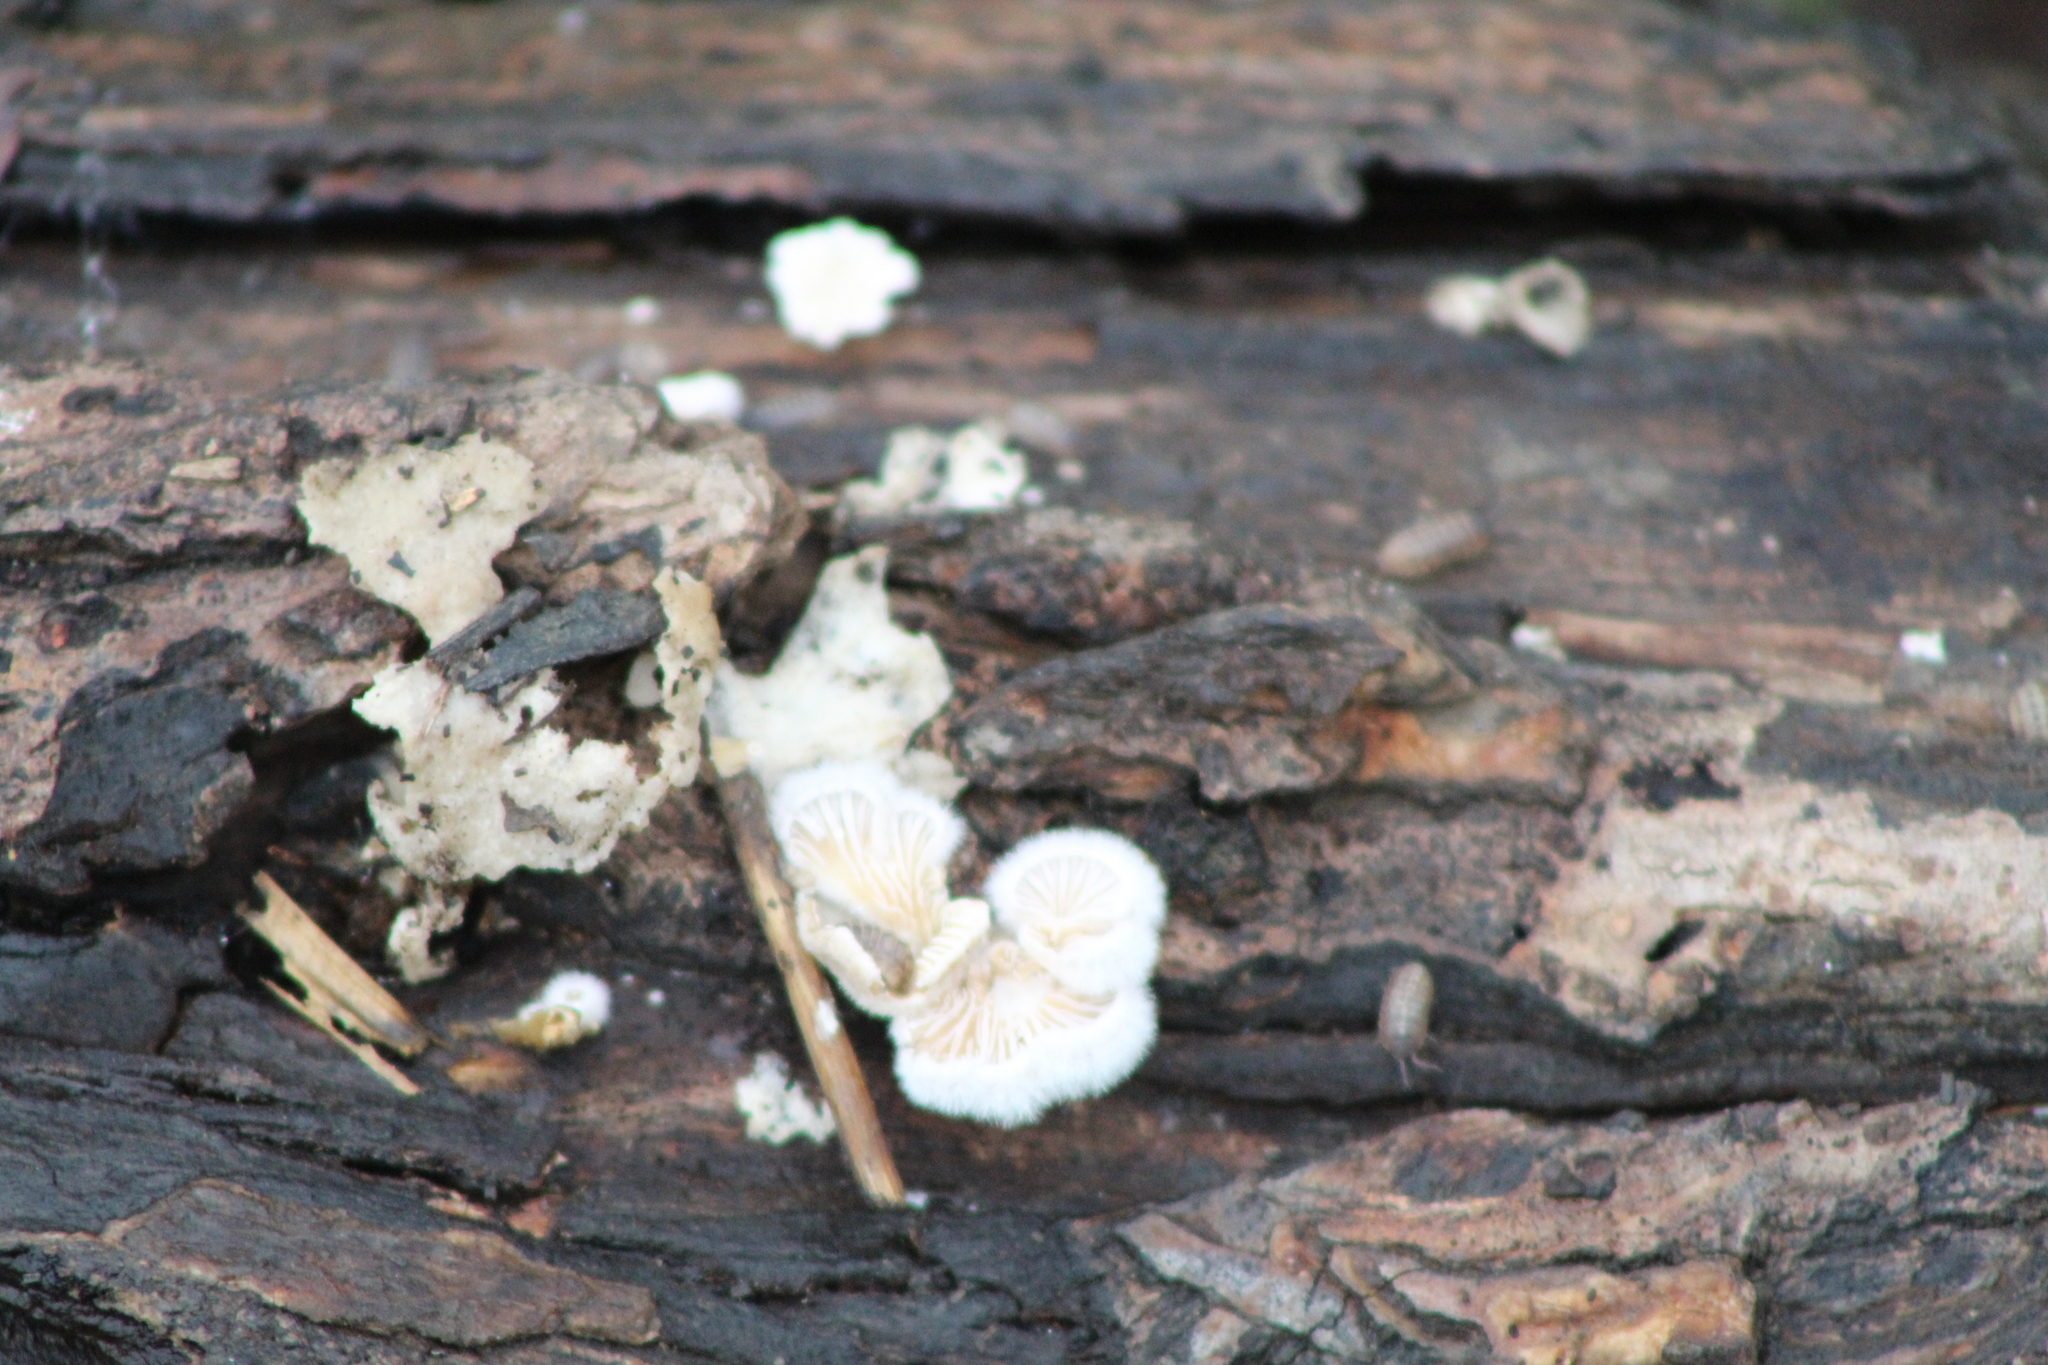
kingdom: Fungi
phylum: Basidiomycota
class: Agaricomycetes
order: Agaricales
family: Schizophyllaceae
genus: Schizophyllum
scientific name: Schizophyllum commune
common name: Common porecrust
